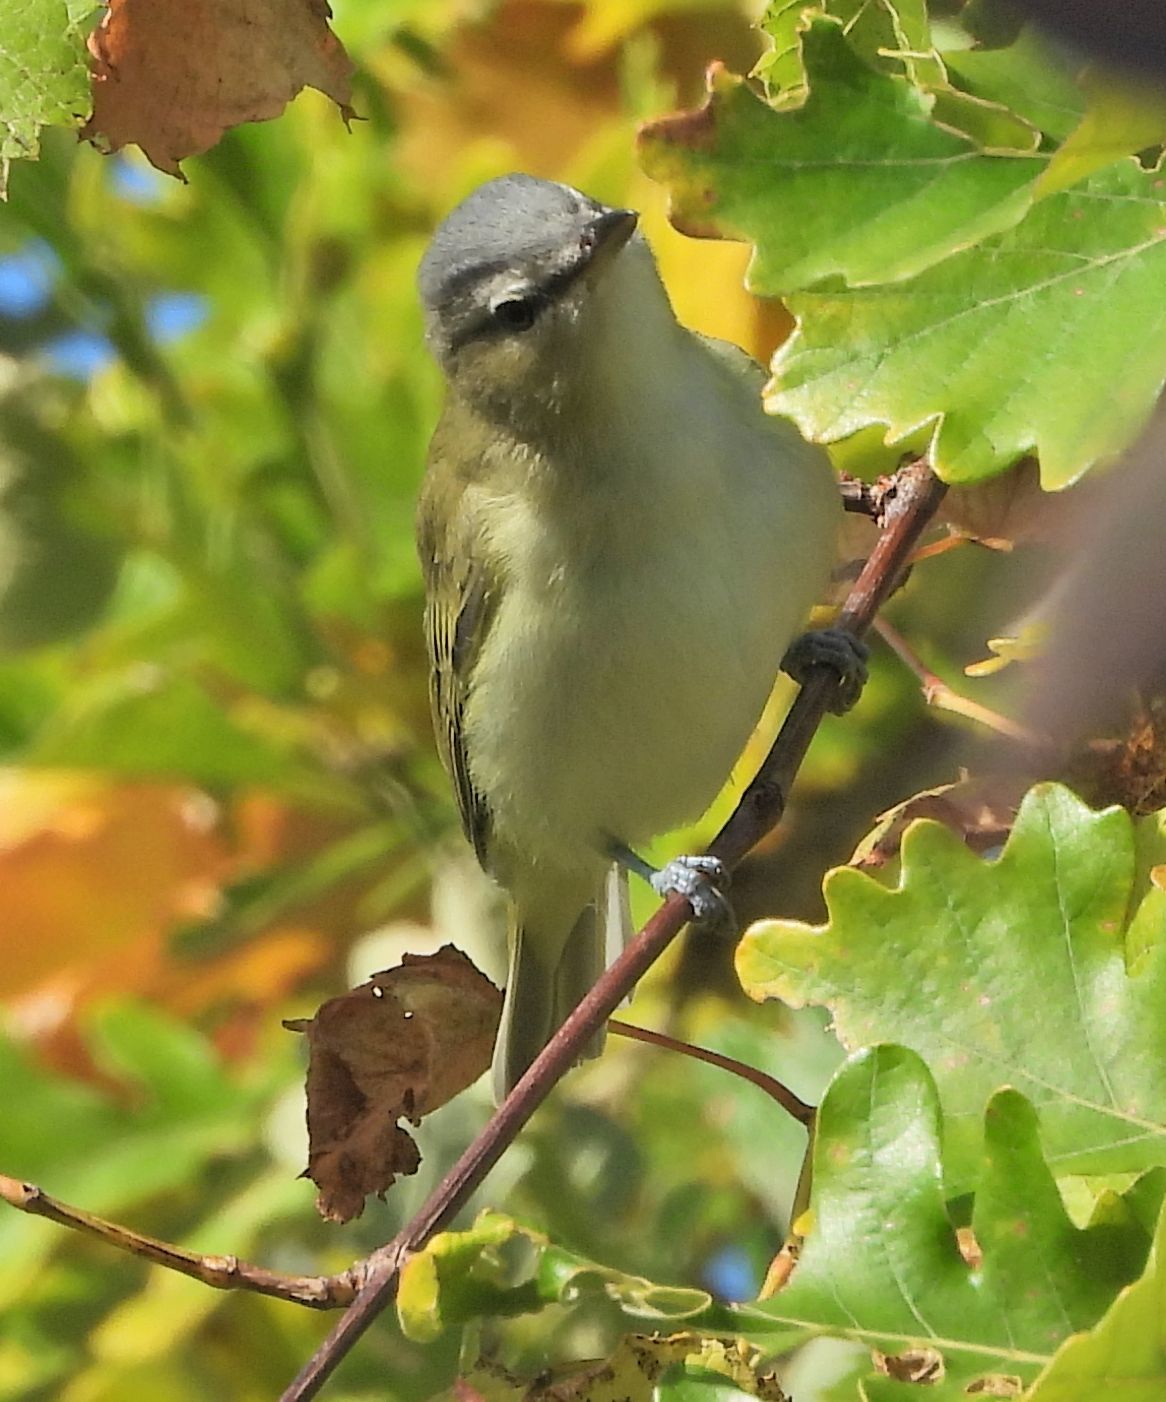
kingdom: Animalia
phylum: Chordata
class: Aves
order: Passeriformes
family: Vireonidae
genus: Vireo
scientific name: Vireo olivaceus
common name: Red-eyed vireo
